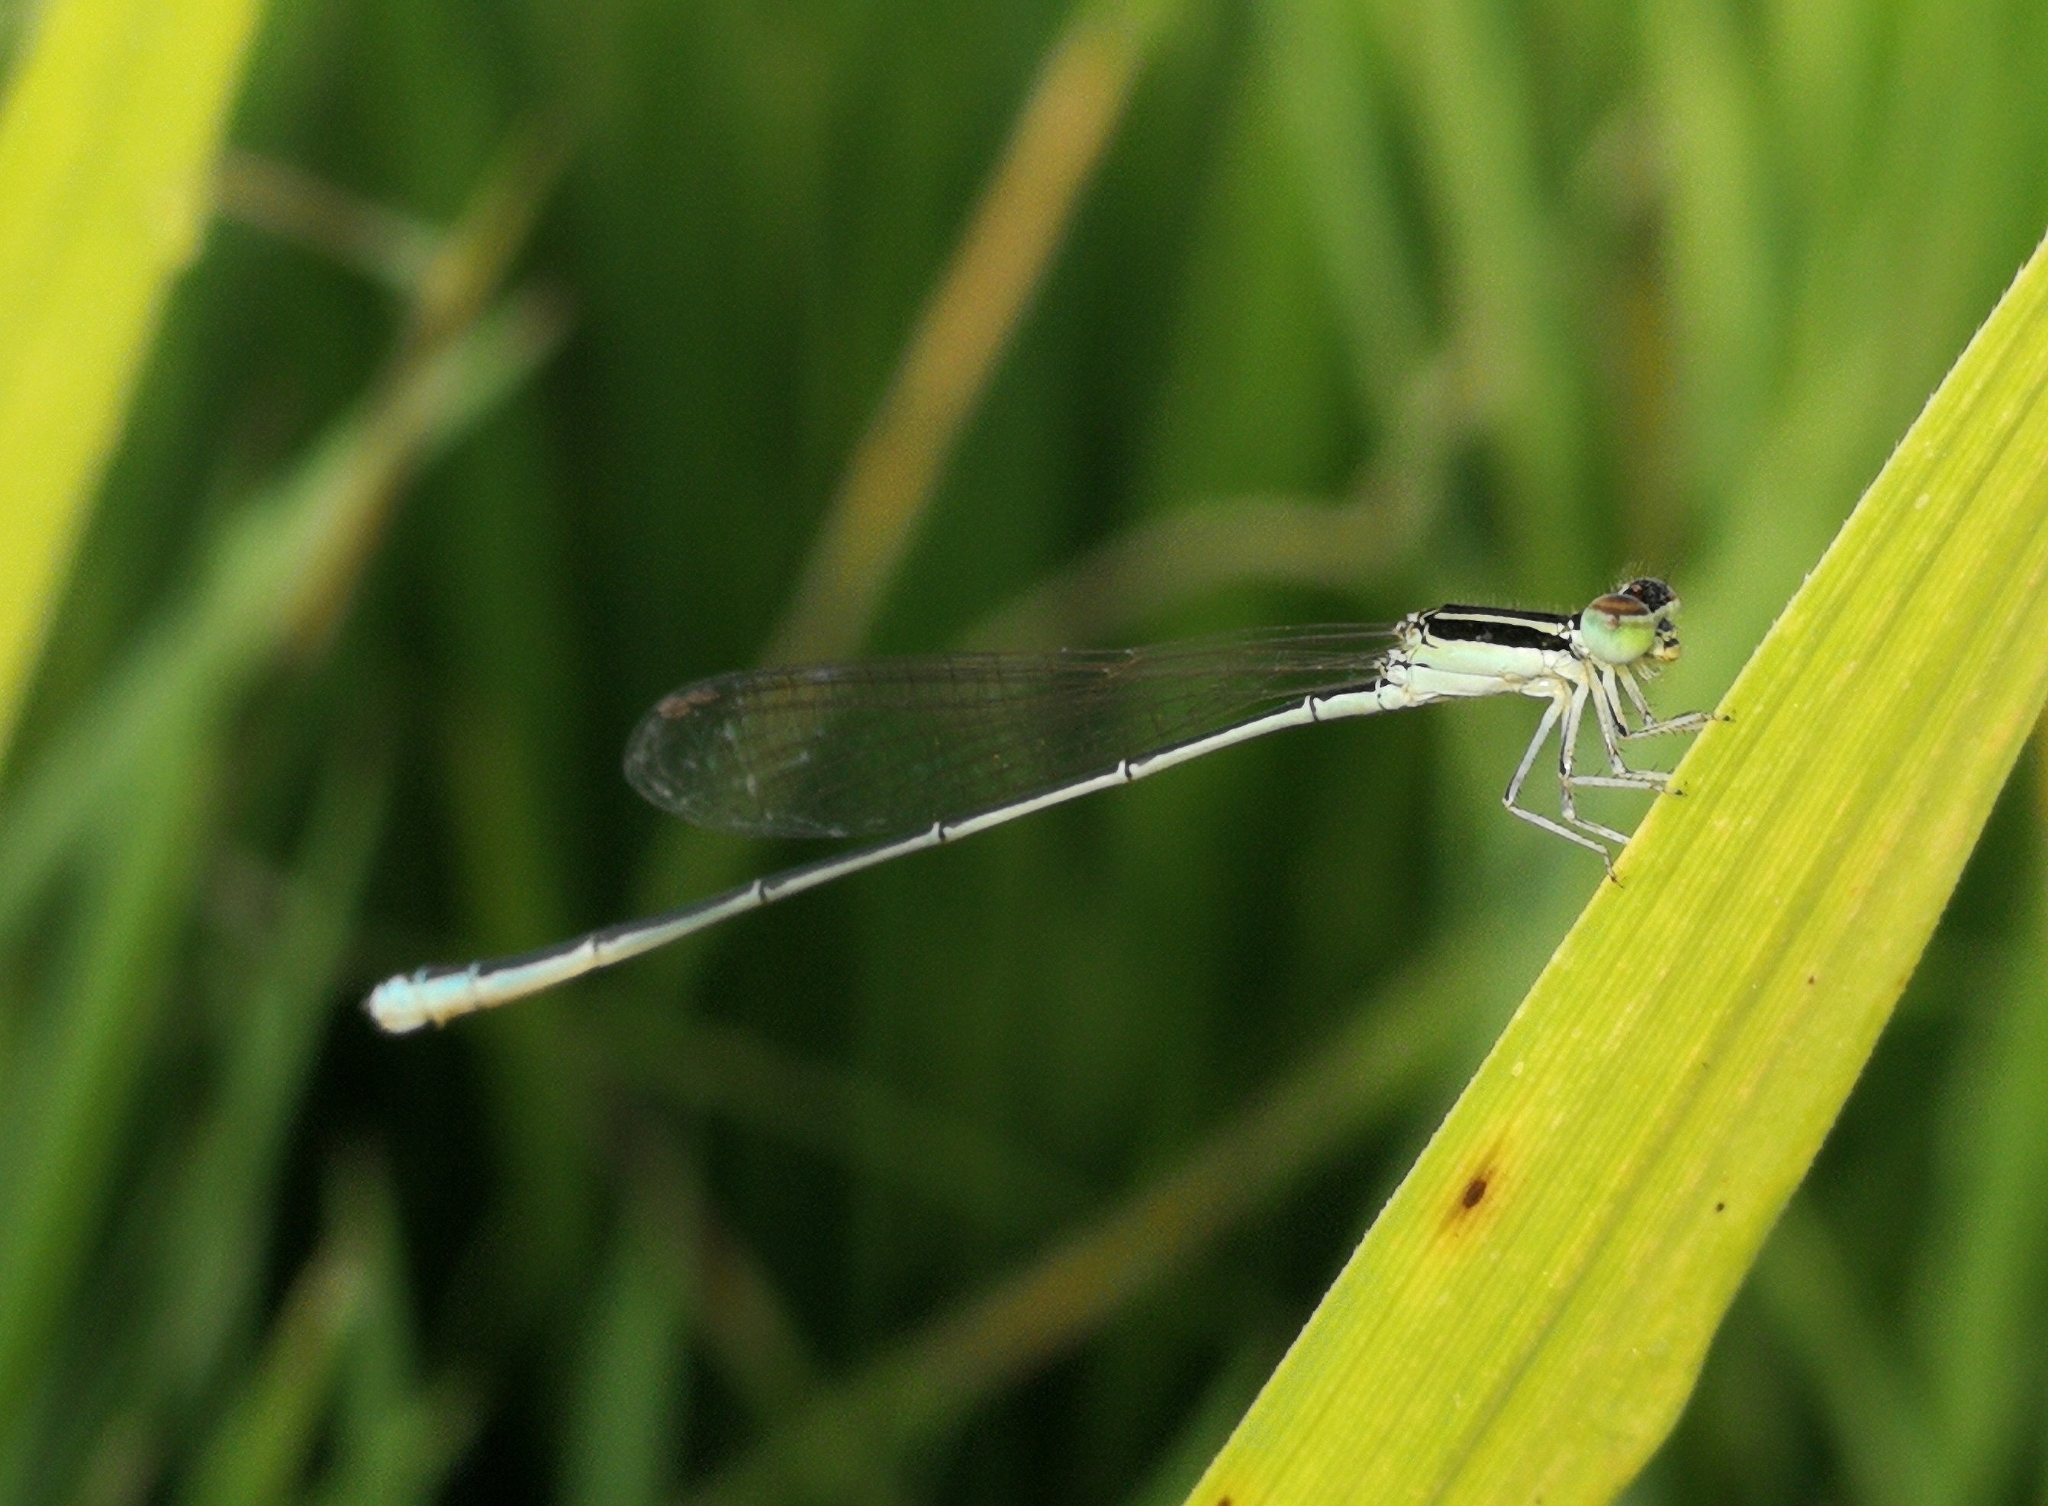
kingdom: Animalia
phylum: Arthropoda
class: Insecta
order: Odonata
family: Coenagrionidae
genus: Aciagrion
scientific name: Aciagrion occidentale
